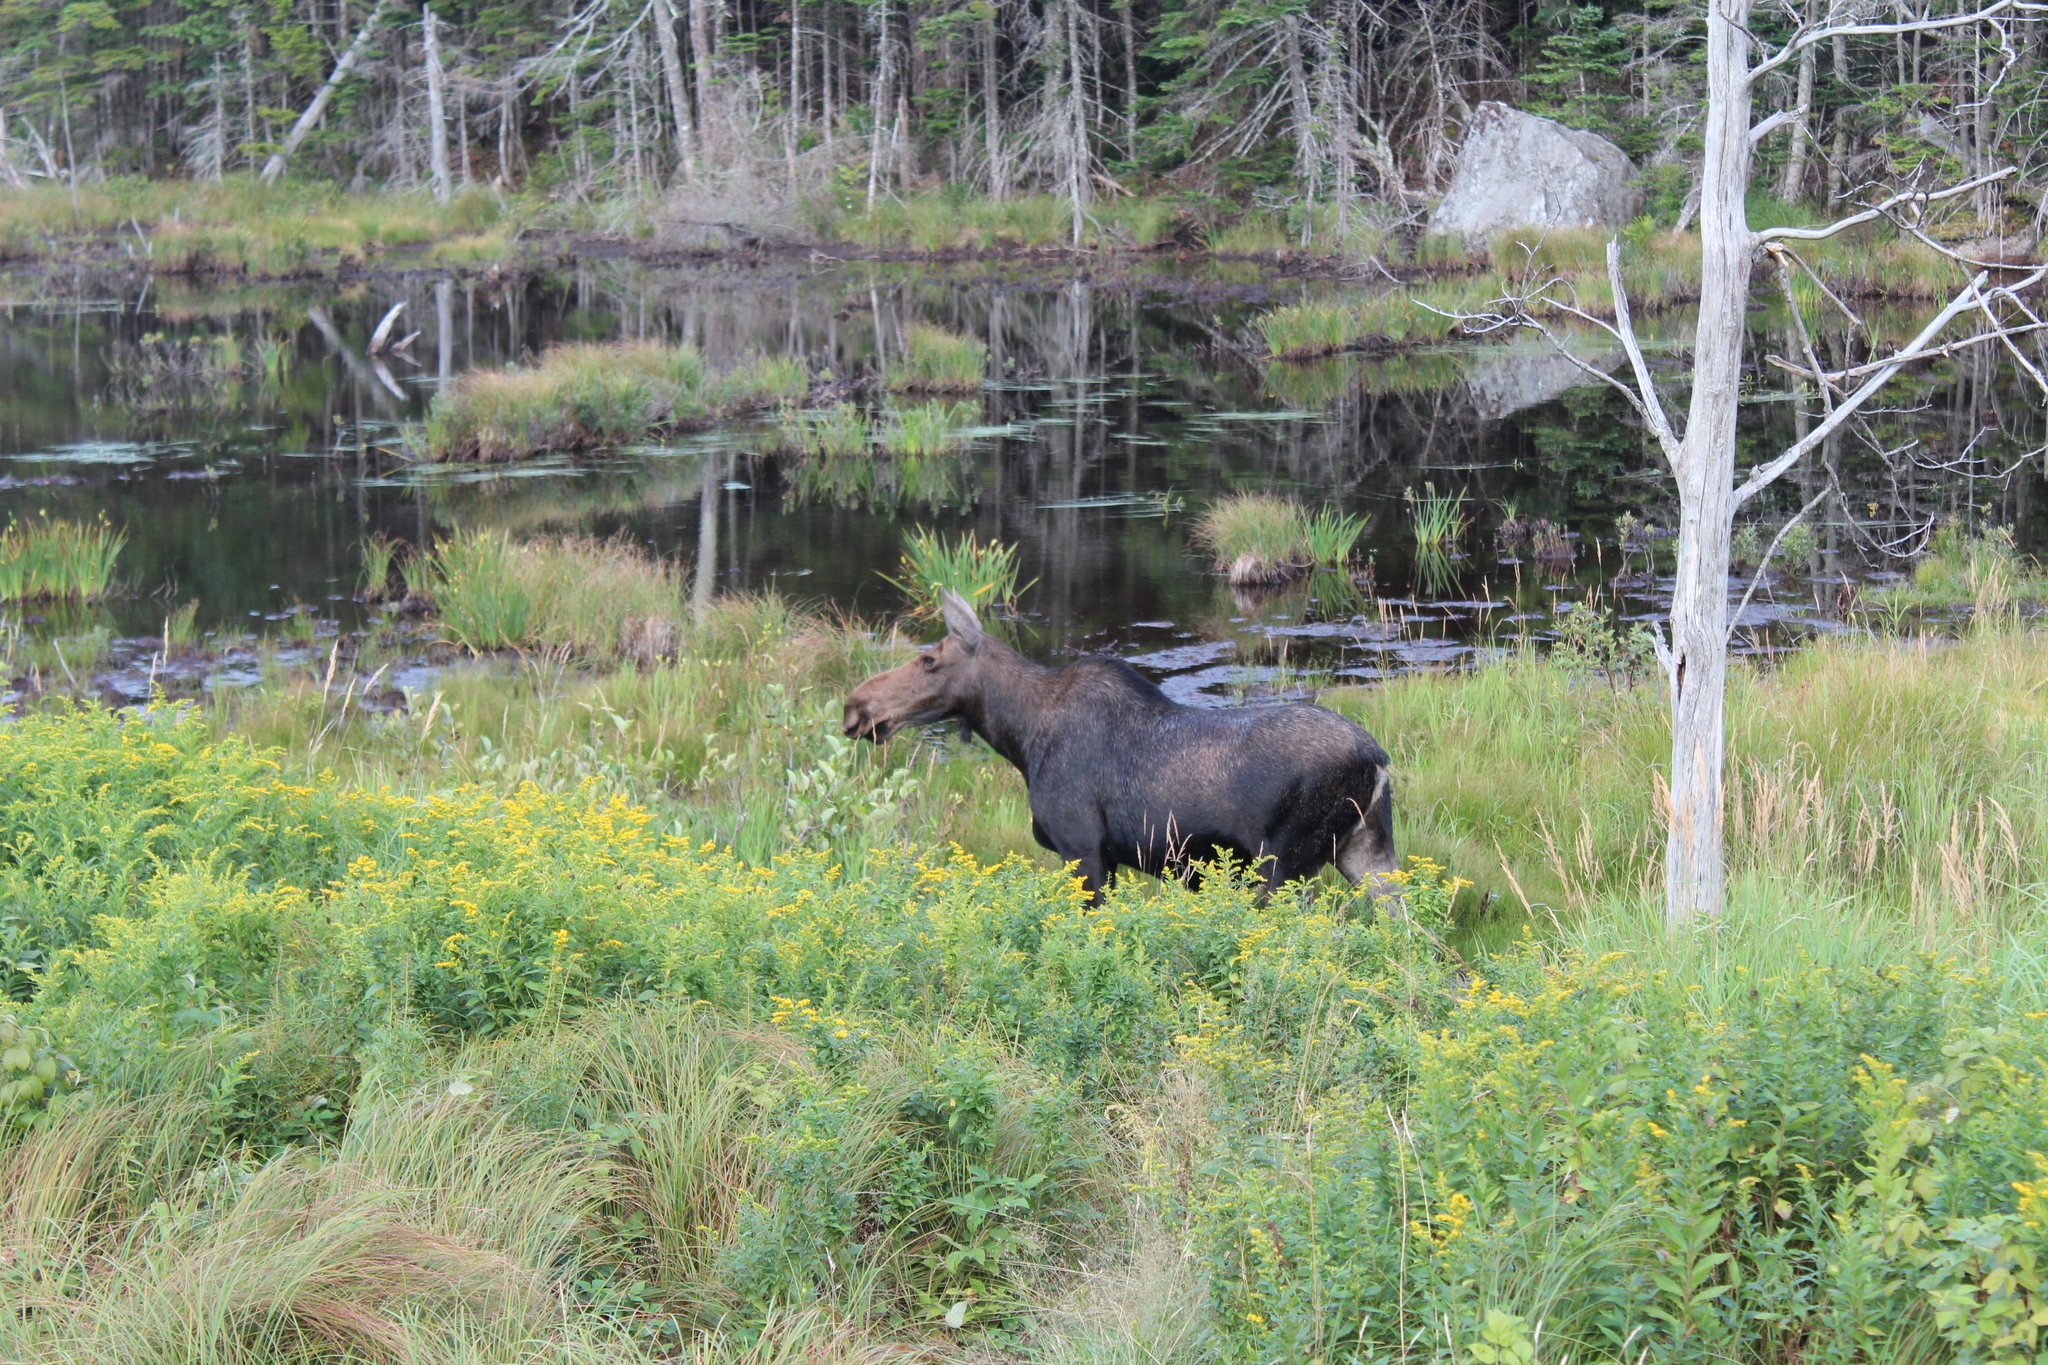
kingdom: Animalia
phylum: Chordata
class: Mammalia
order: Artiodactyla
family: Cervidae
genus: Alces
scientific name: Alces alces
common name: Moose
